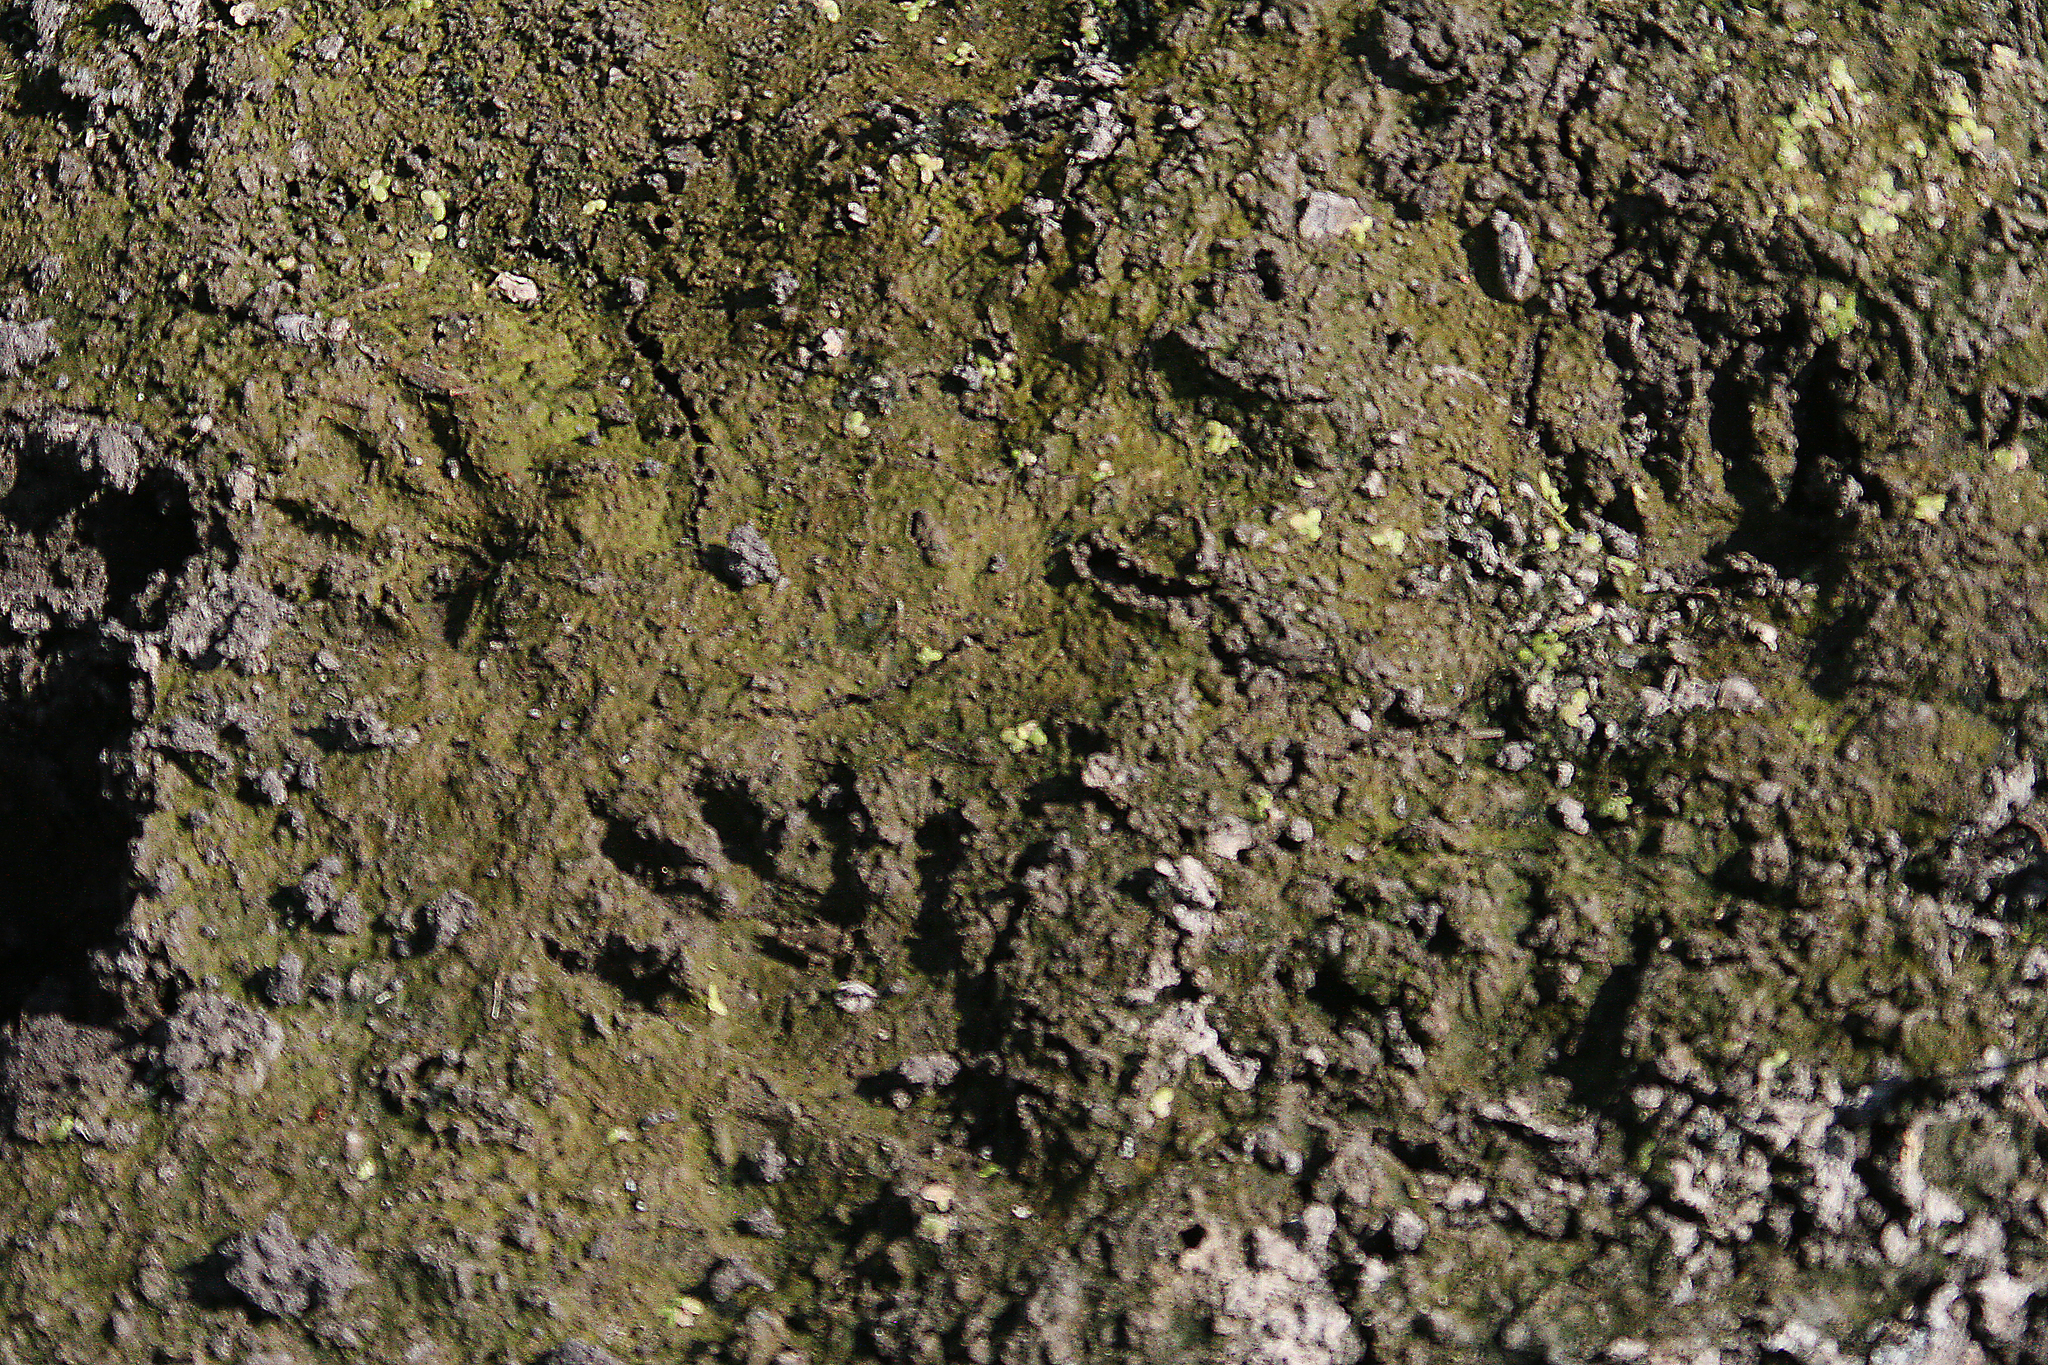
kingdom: Animalia
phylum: Chordata
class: Mammalia
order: Carnivora
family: Procyonidae
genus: Procyon
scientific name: Procyon lotor
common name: Raccoon
